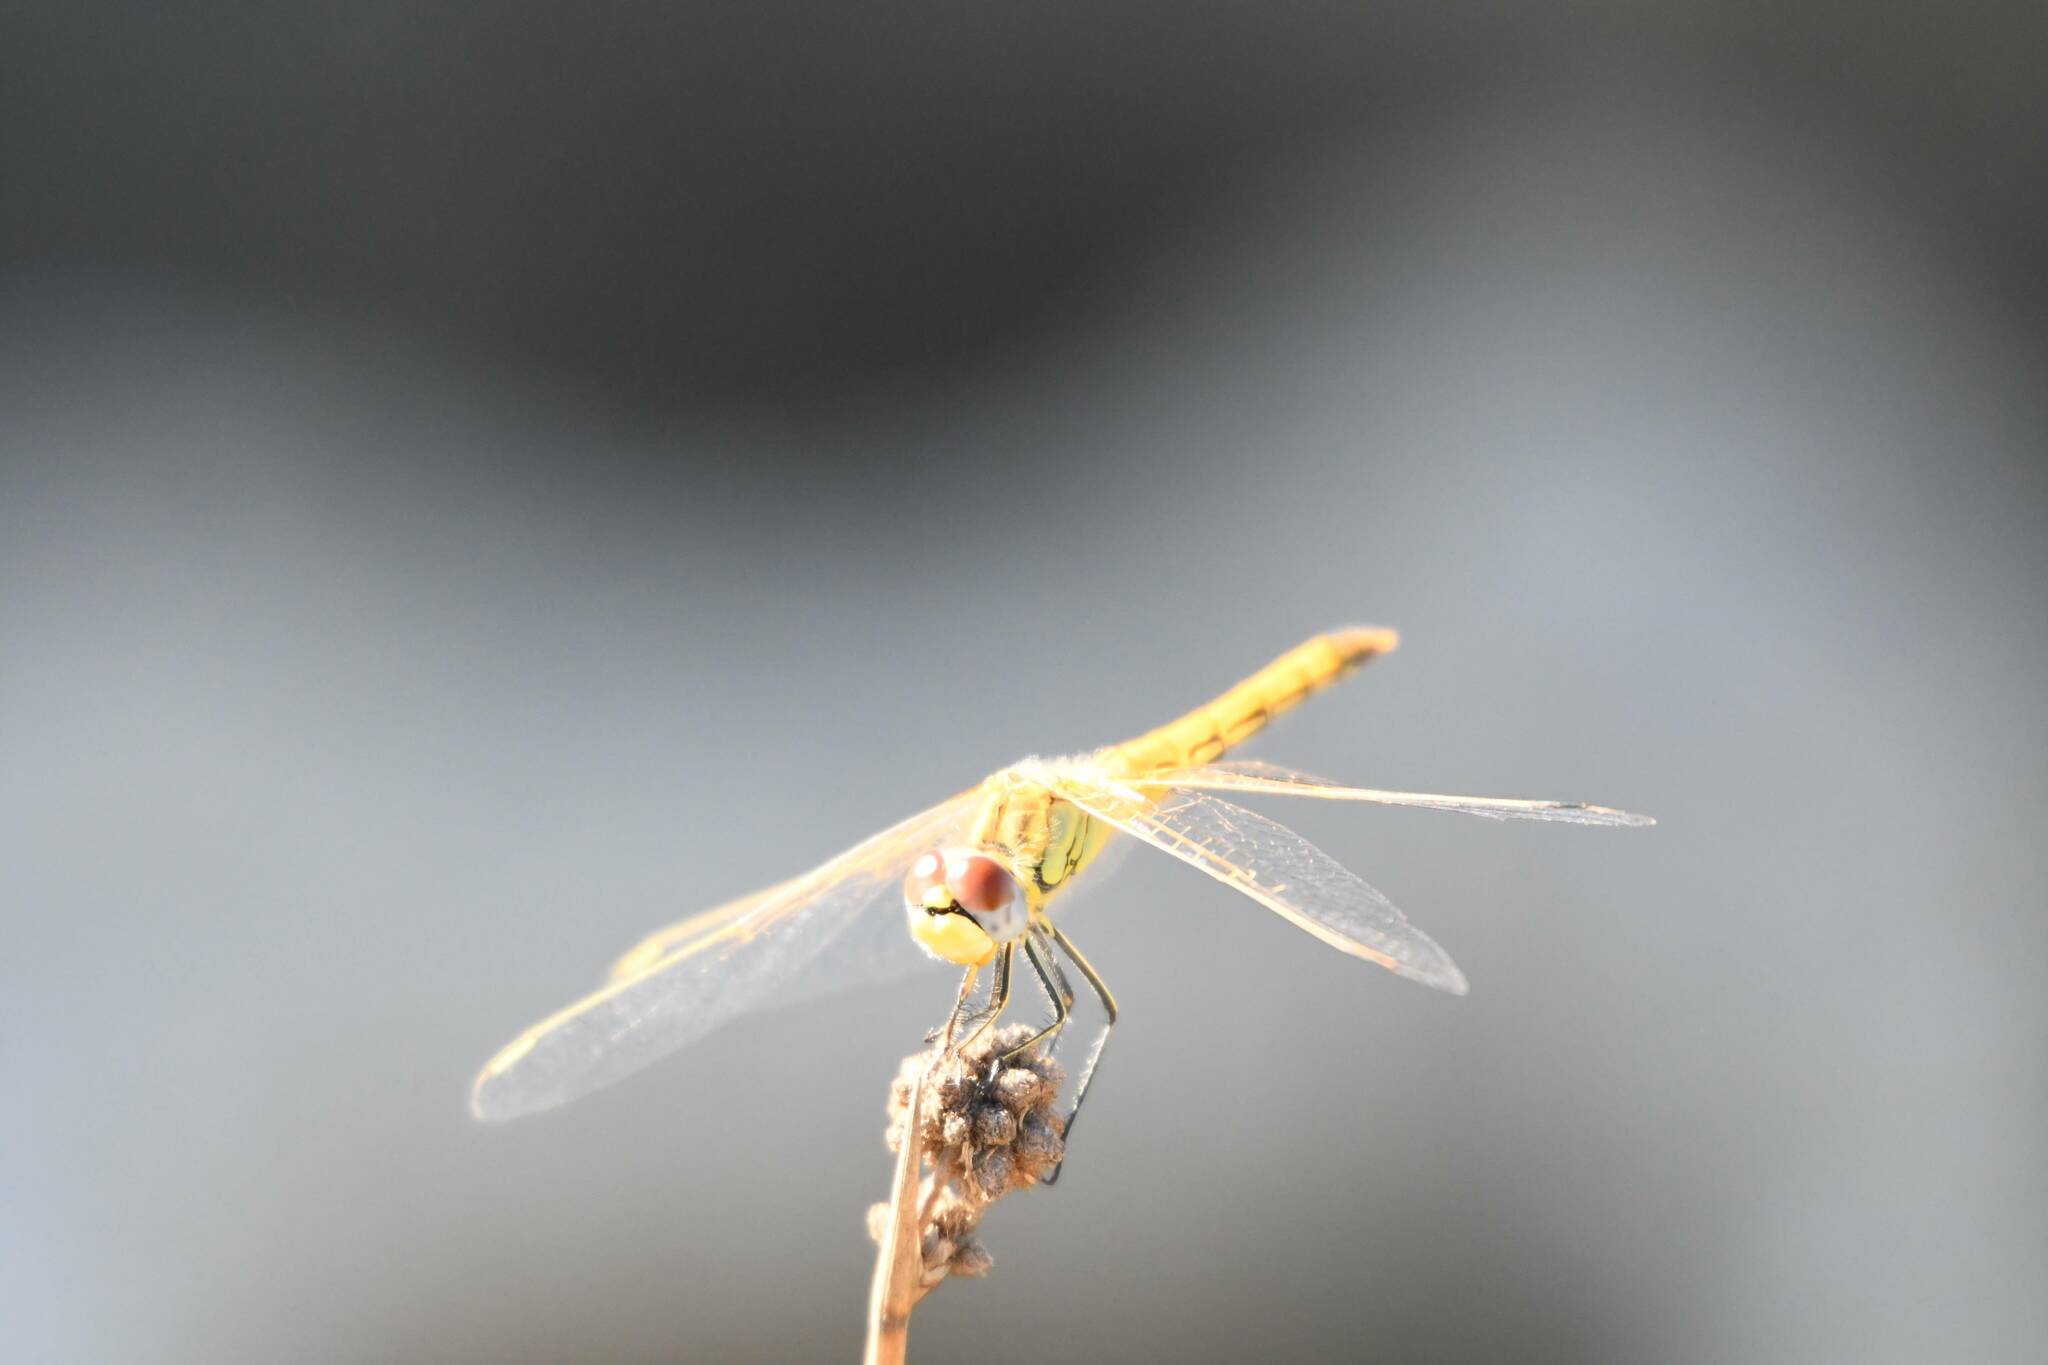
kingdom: Animalia
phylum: Arthropoda
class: Insecta
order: Odonata
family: Libellulidae
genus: Sympetrum
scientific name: Sympetrum fonscolombii
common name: Red-veined darter
